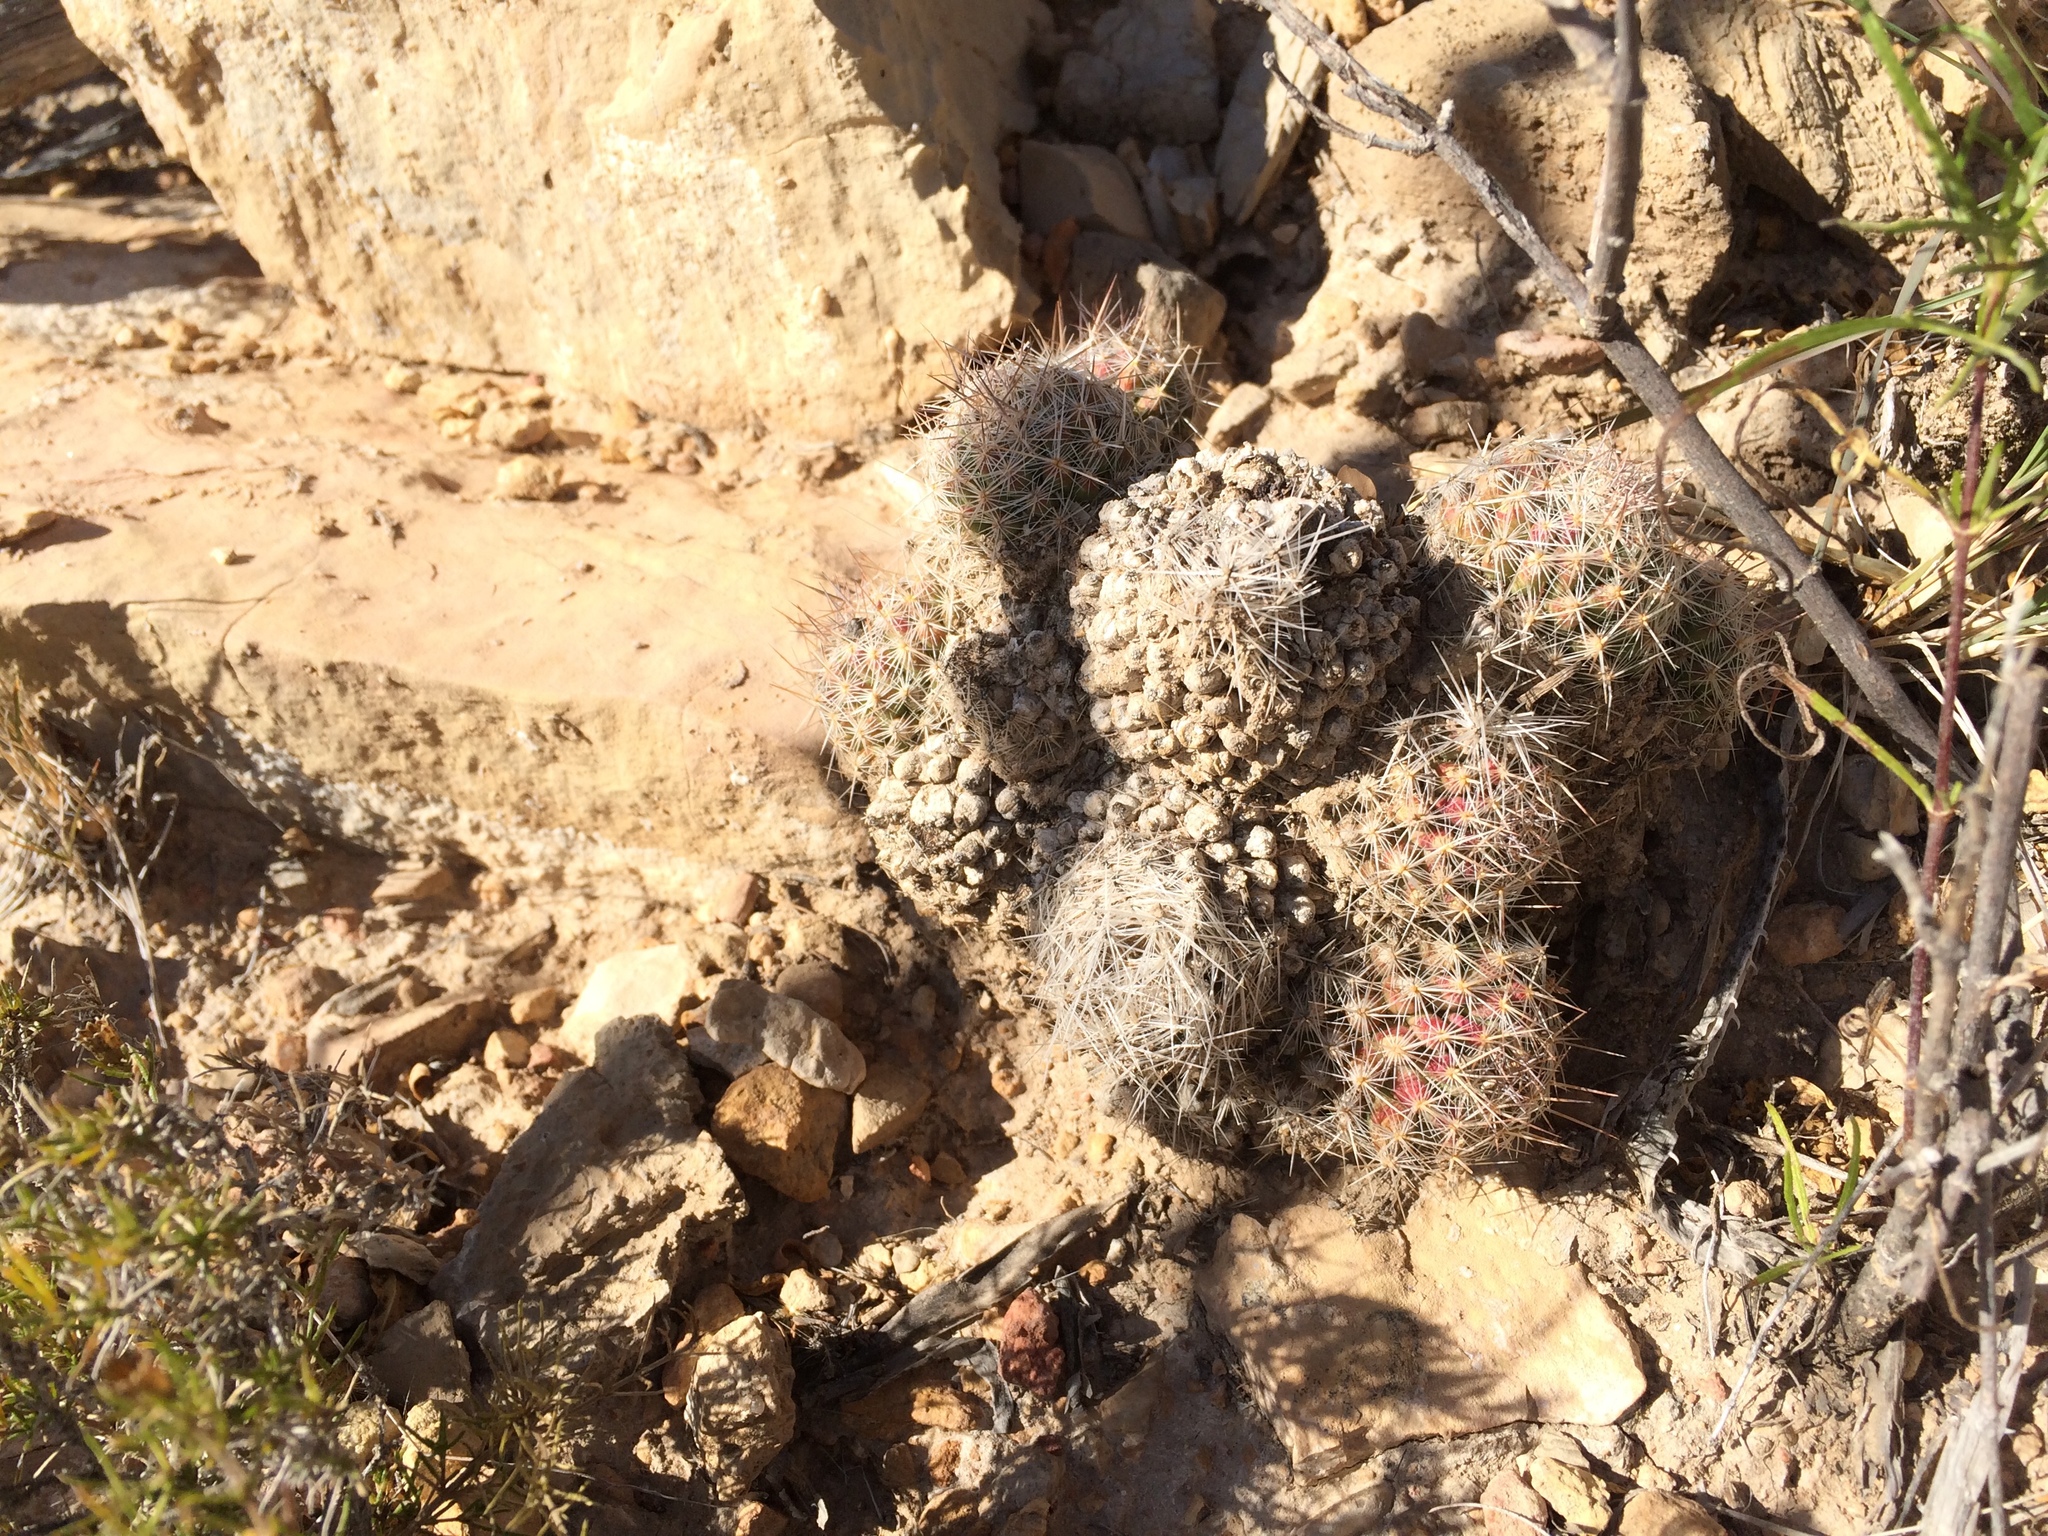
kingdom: Plantae
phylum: Tracheophyta
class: Magnoliopsida
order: Caryophyllales
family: Cactaceae
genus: Pelecyphora
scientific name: Pelecyphora tuberculosa
